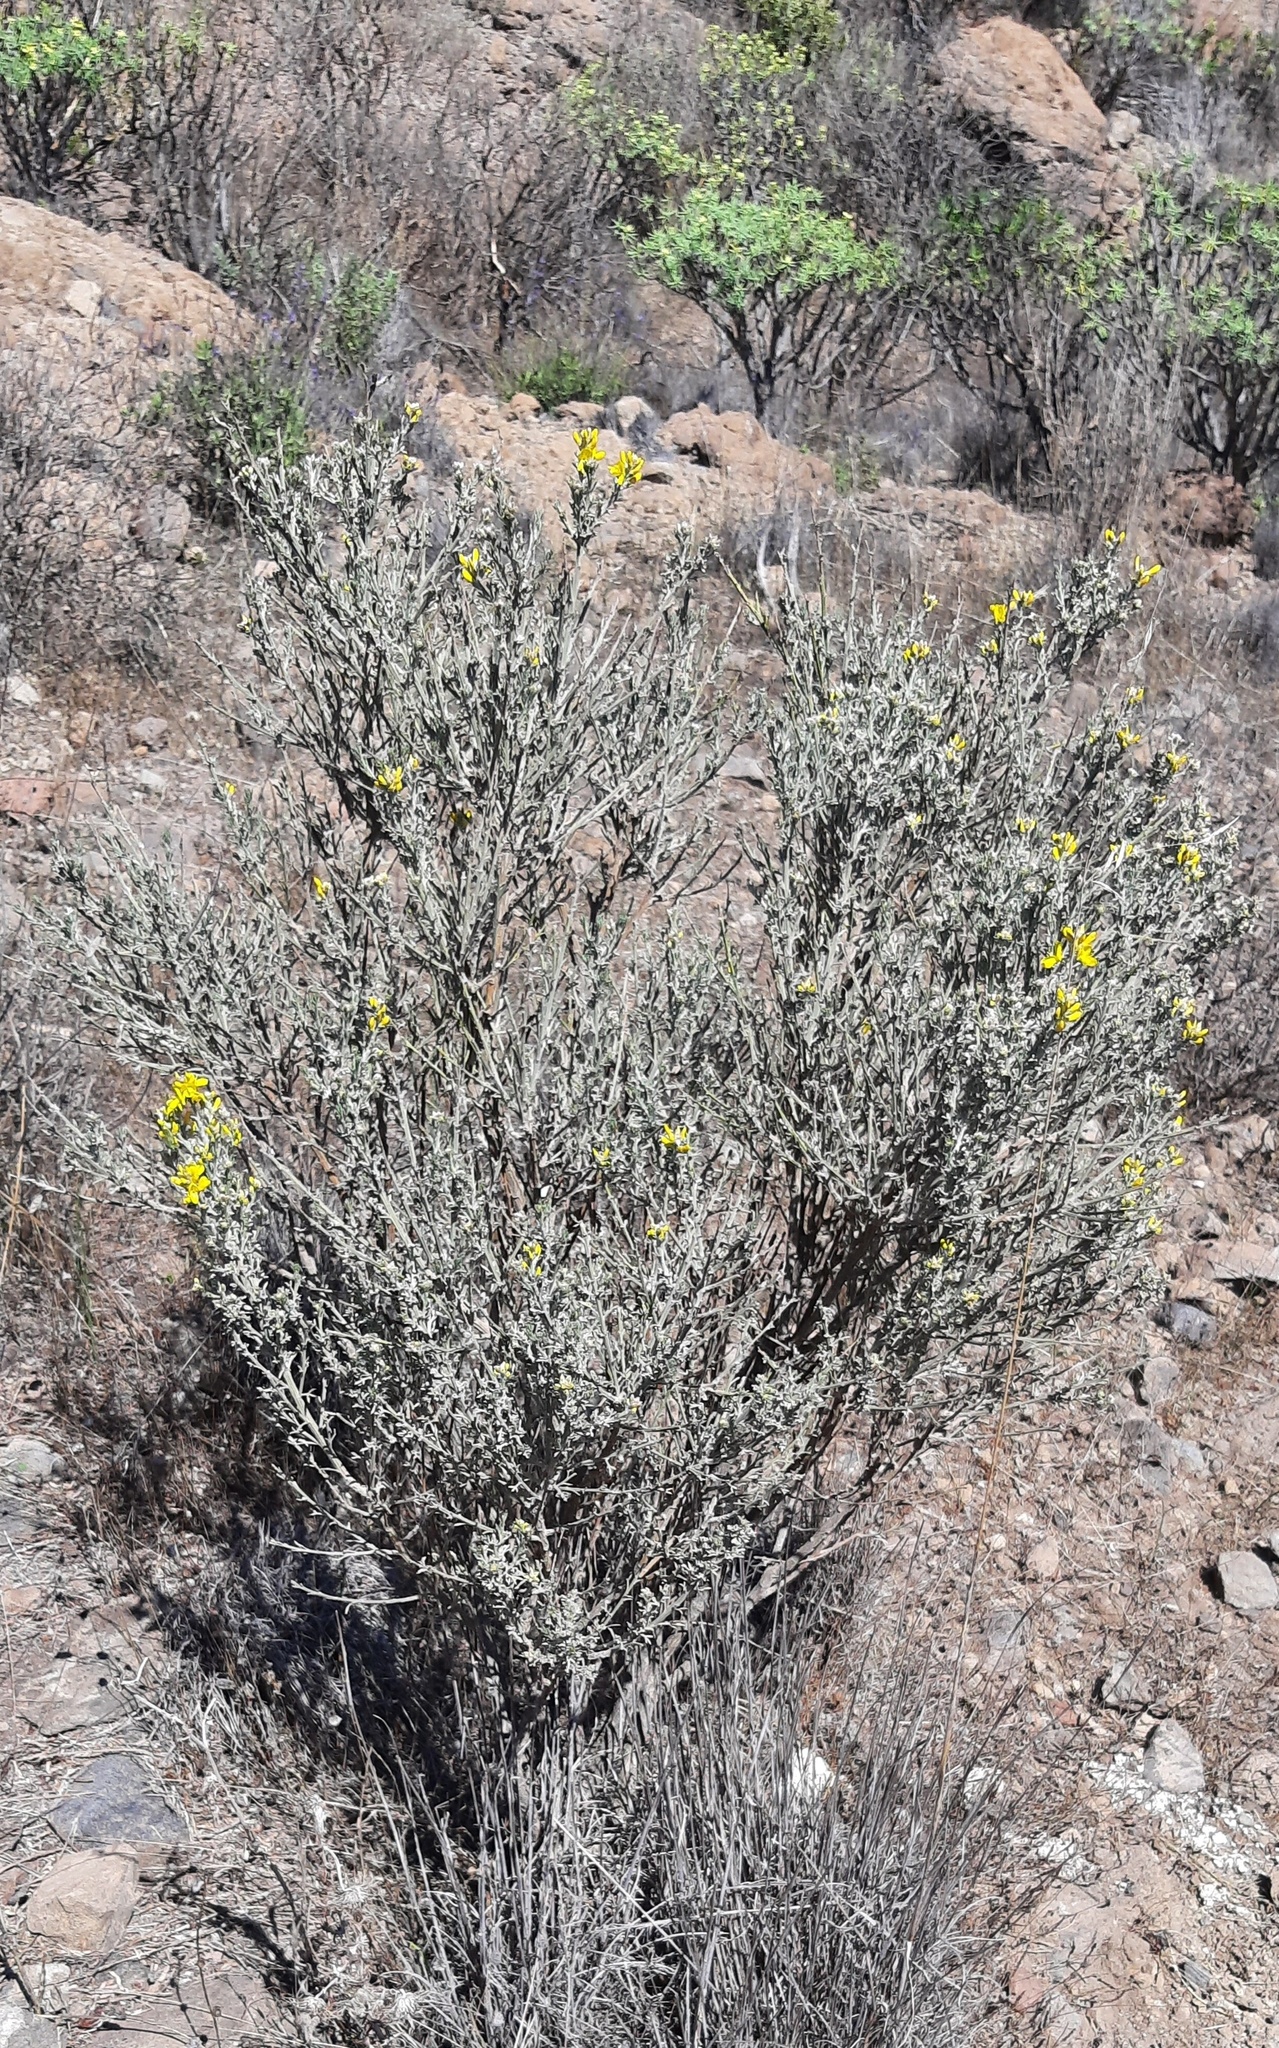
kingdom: Plantae
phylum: Tracheophyta
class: Magnoliopsida
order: Fabales
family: Fabaceae
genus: Genista
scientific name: Genista microphylla
